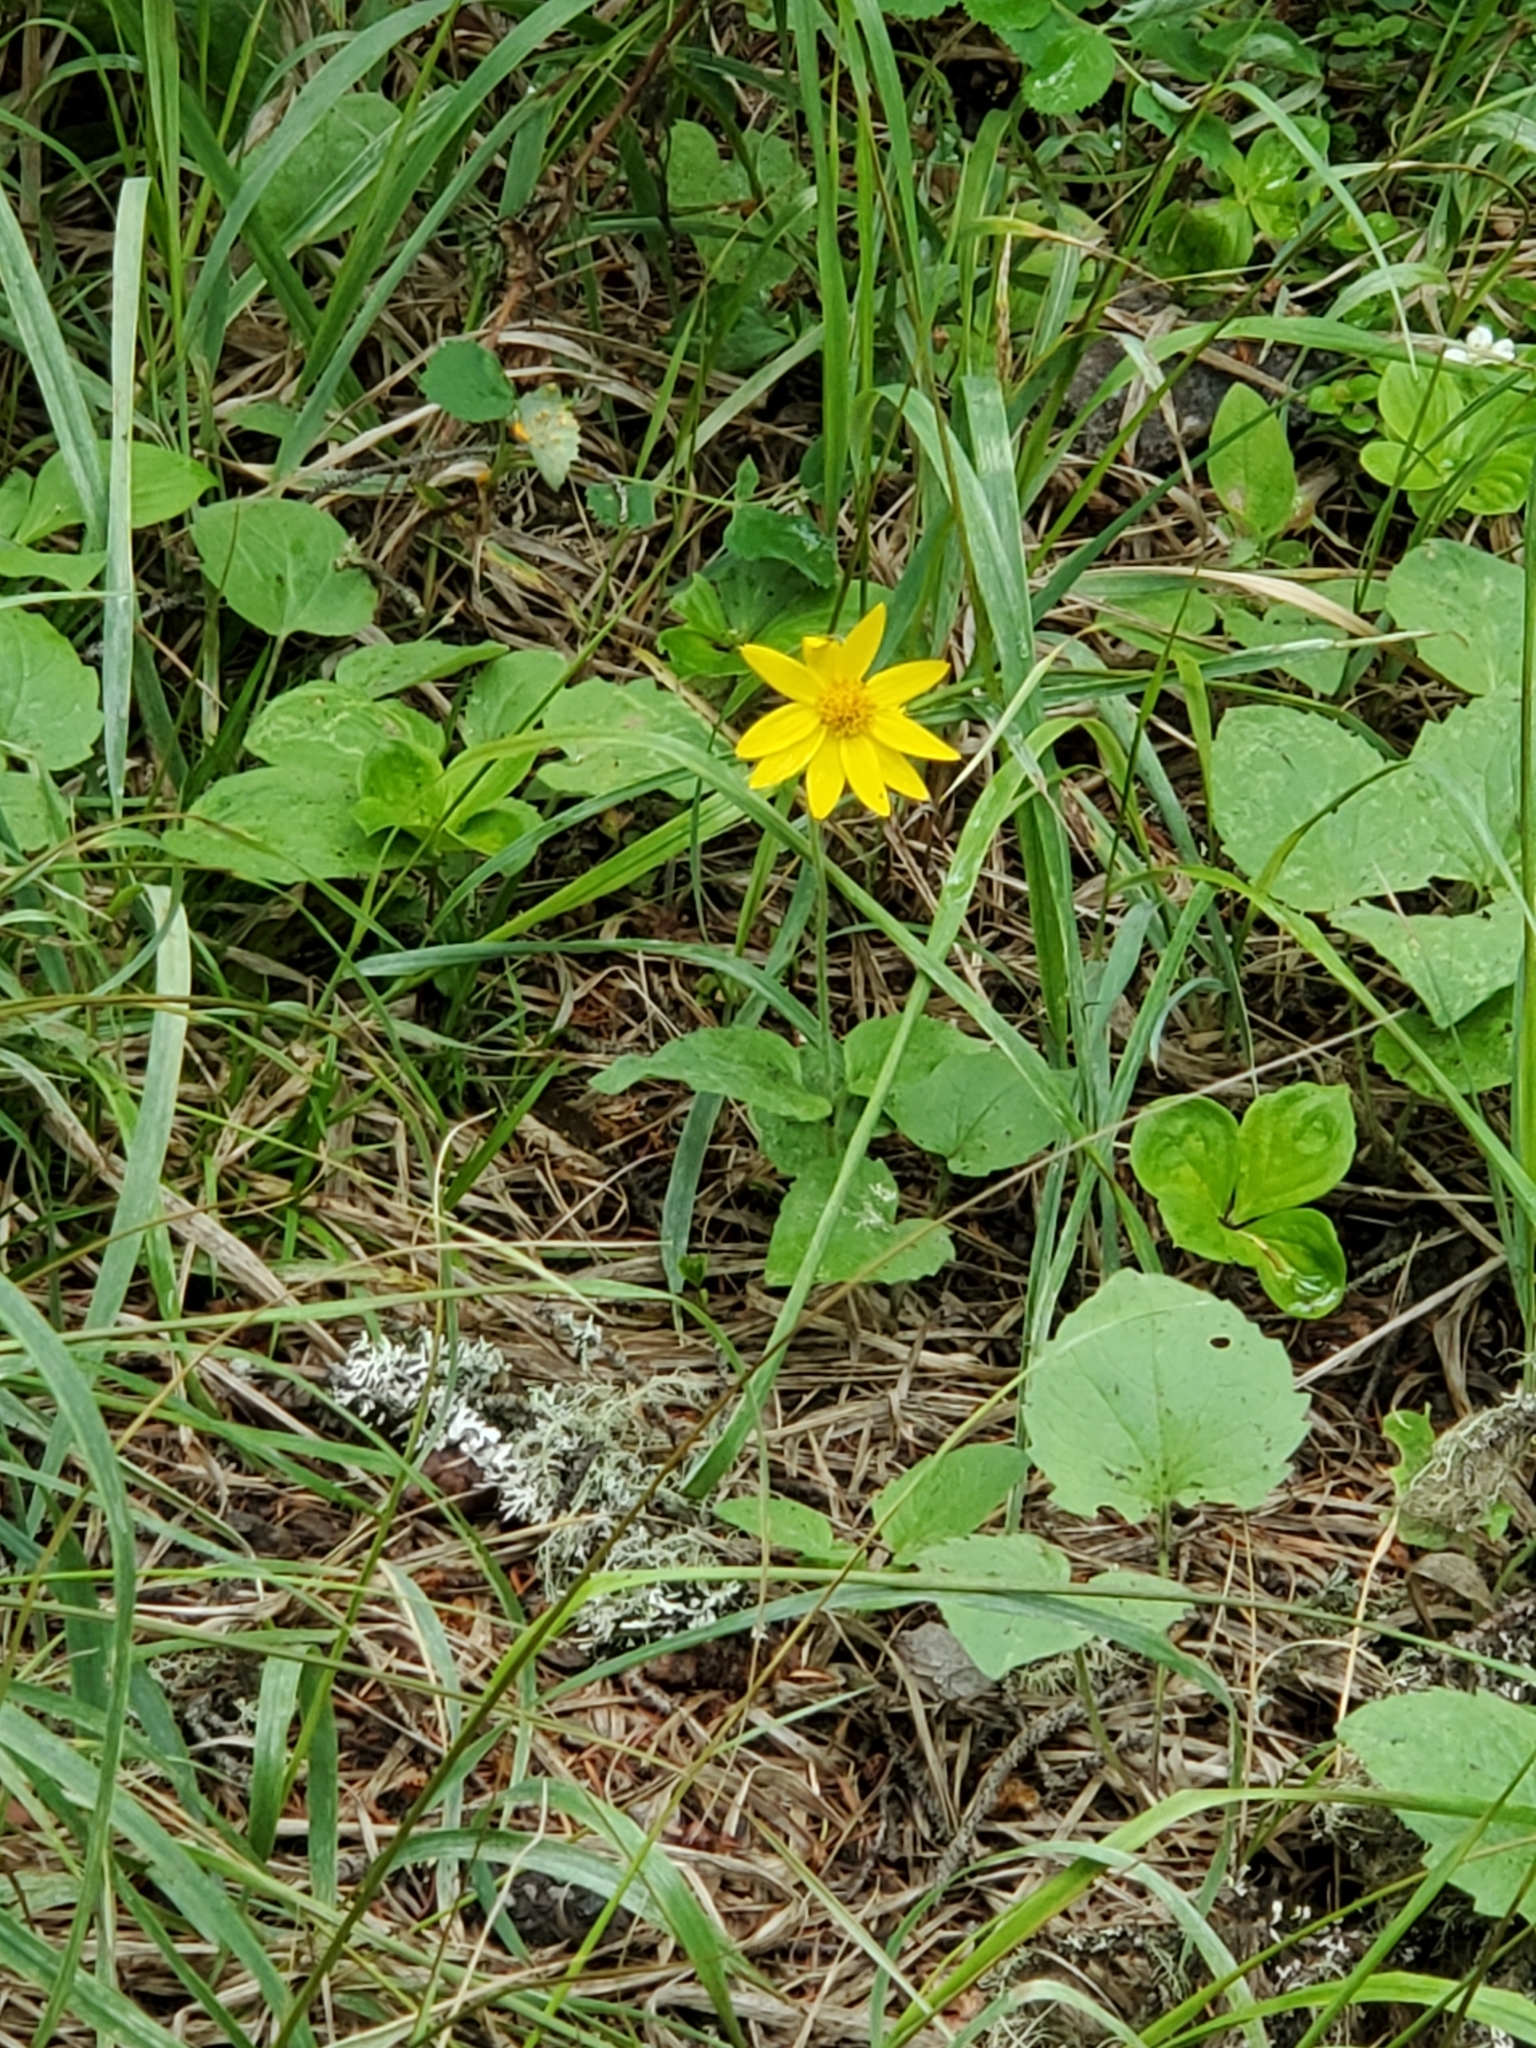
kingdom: Plantae
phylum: Tracheophyta
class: Magnoliopsida
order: Asterales
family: Asteraceae
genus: Arnica
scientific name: Arnica cordifolia
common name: Heart-leaf arnica
